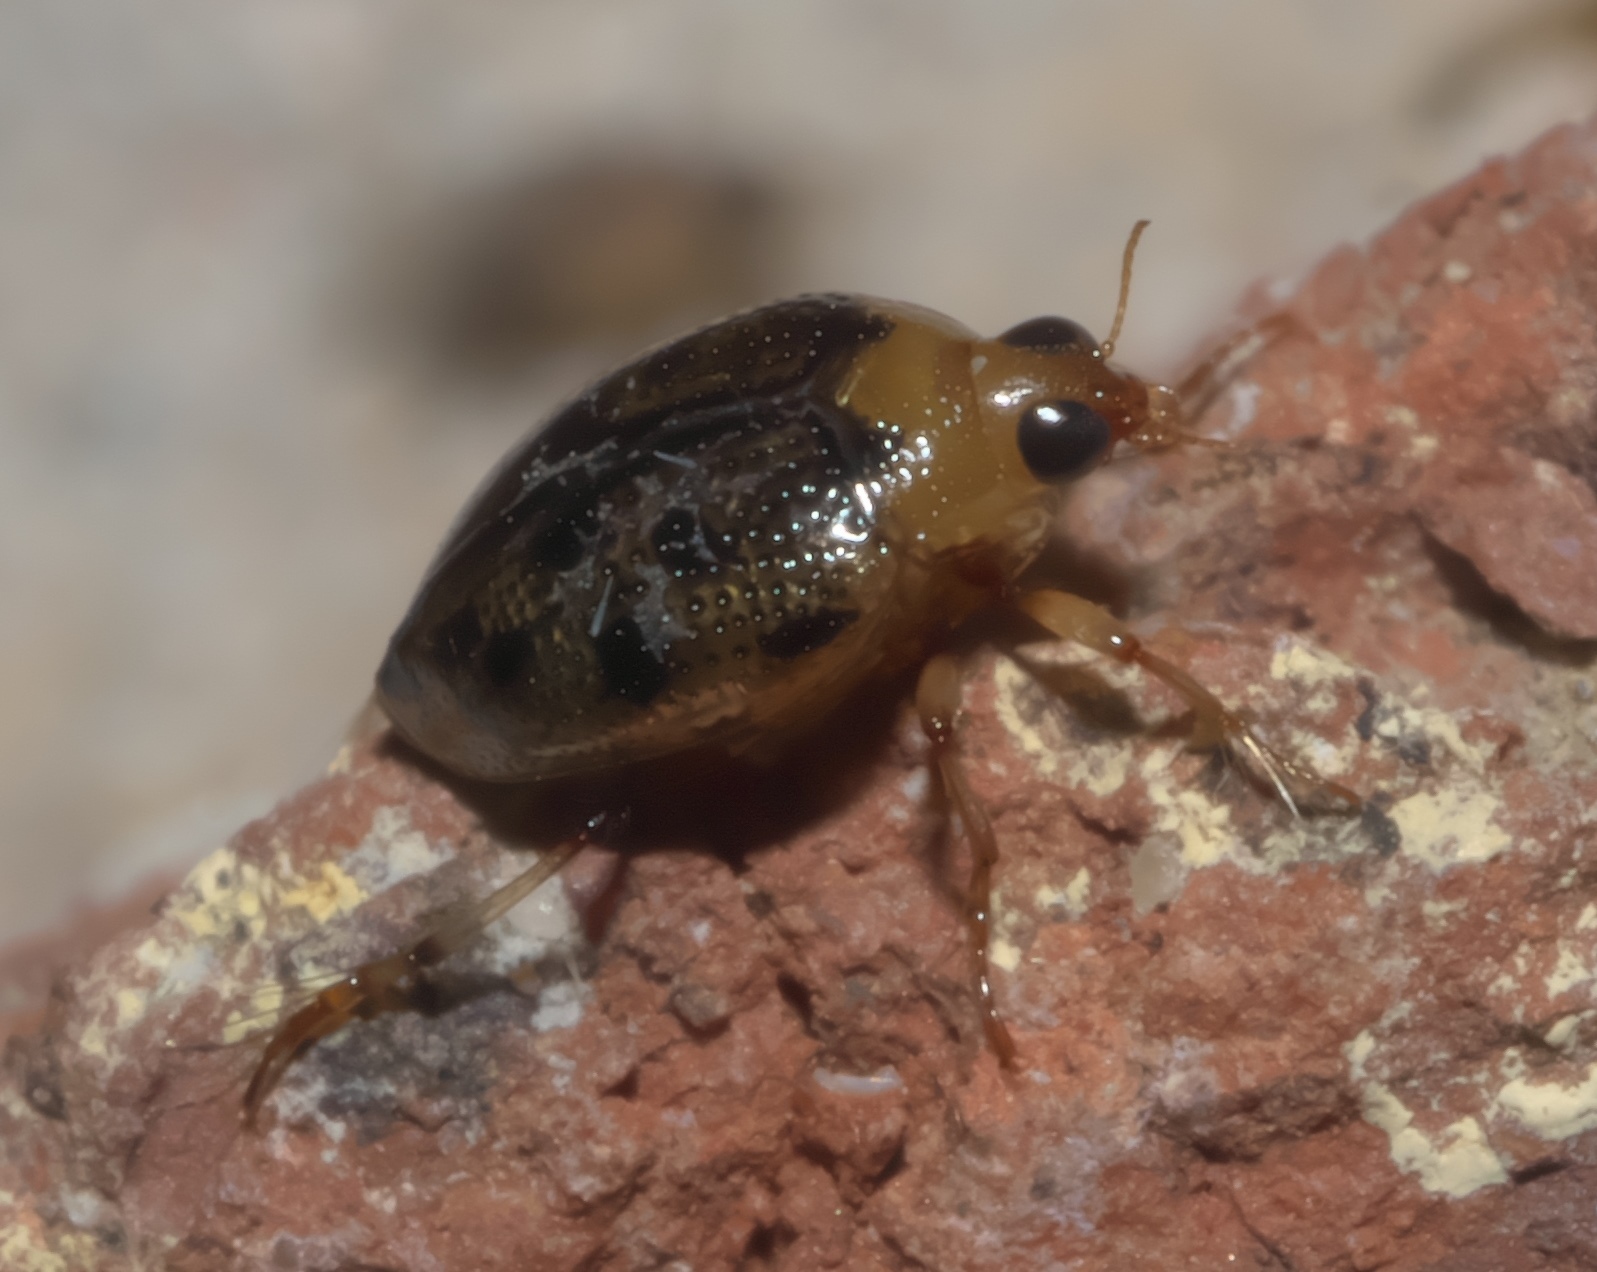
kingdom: Animalia
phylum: Arthropoda
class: Insecta
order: Coleoptera
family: Haliplidae
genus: Peltodytes
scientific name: Peltodytes
